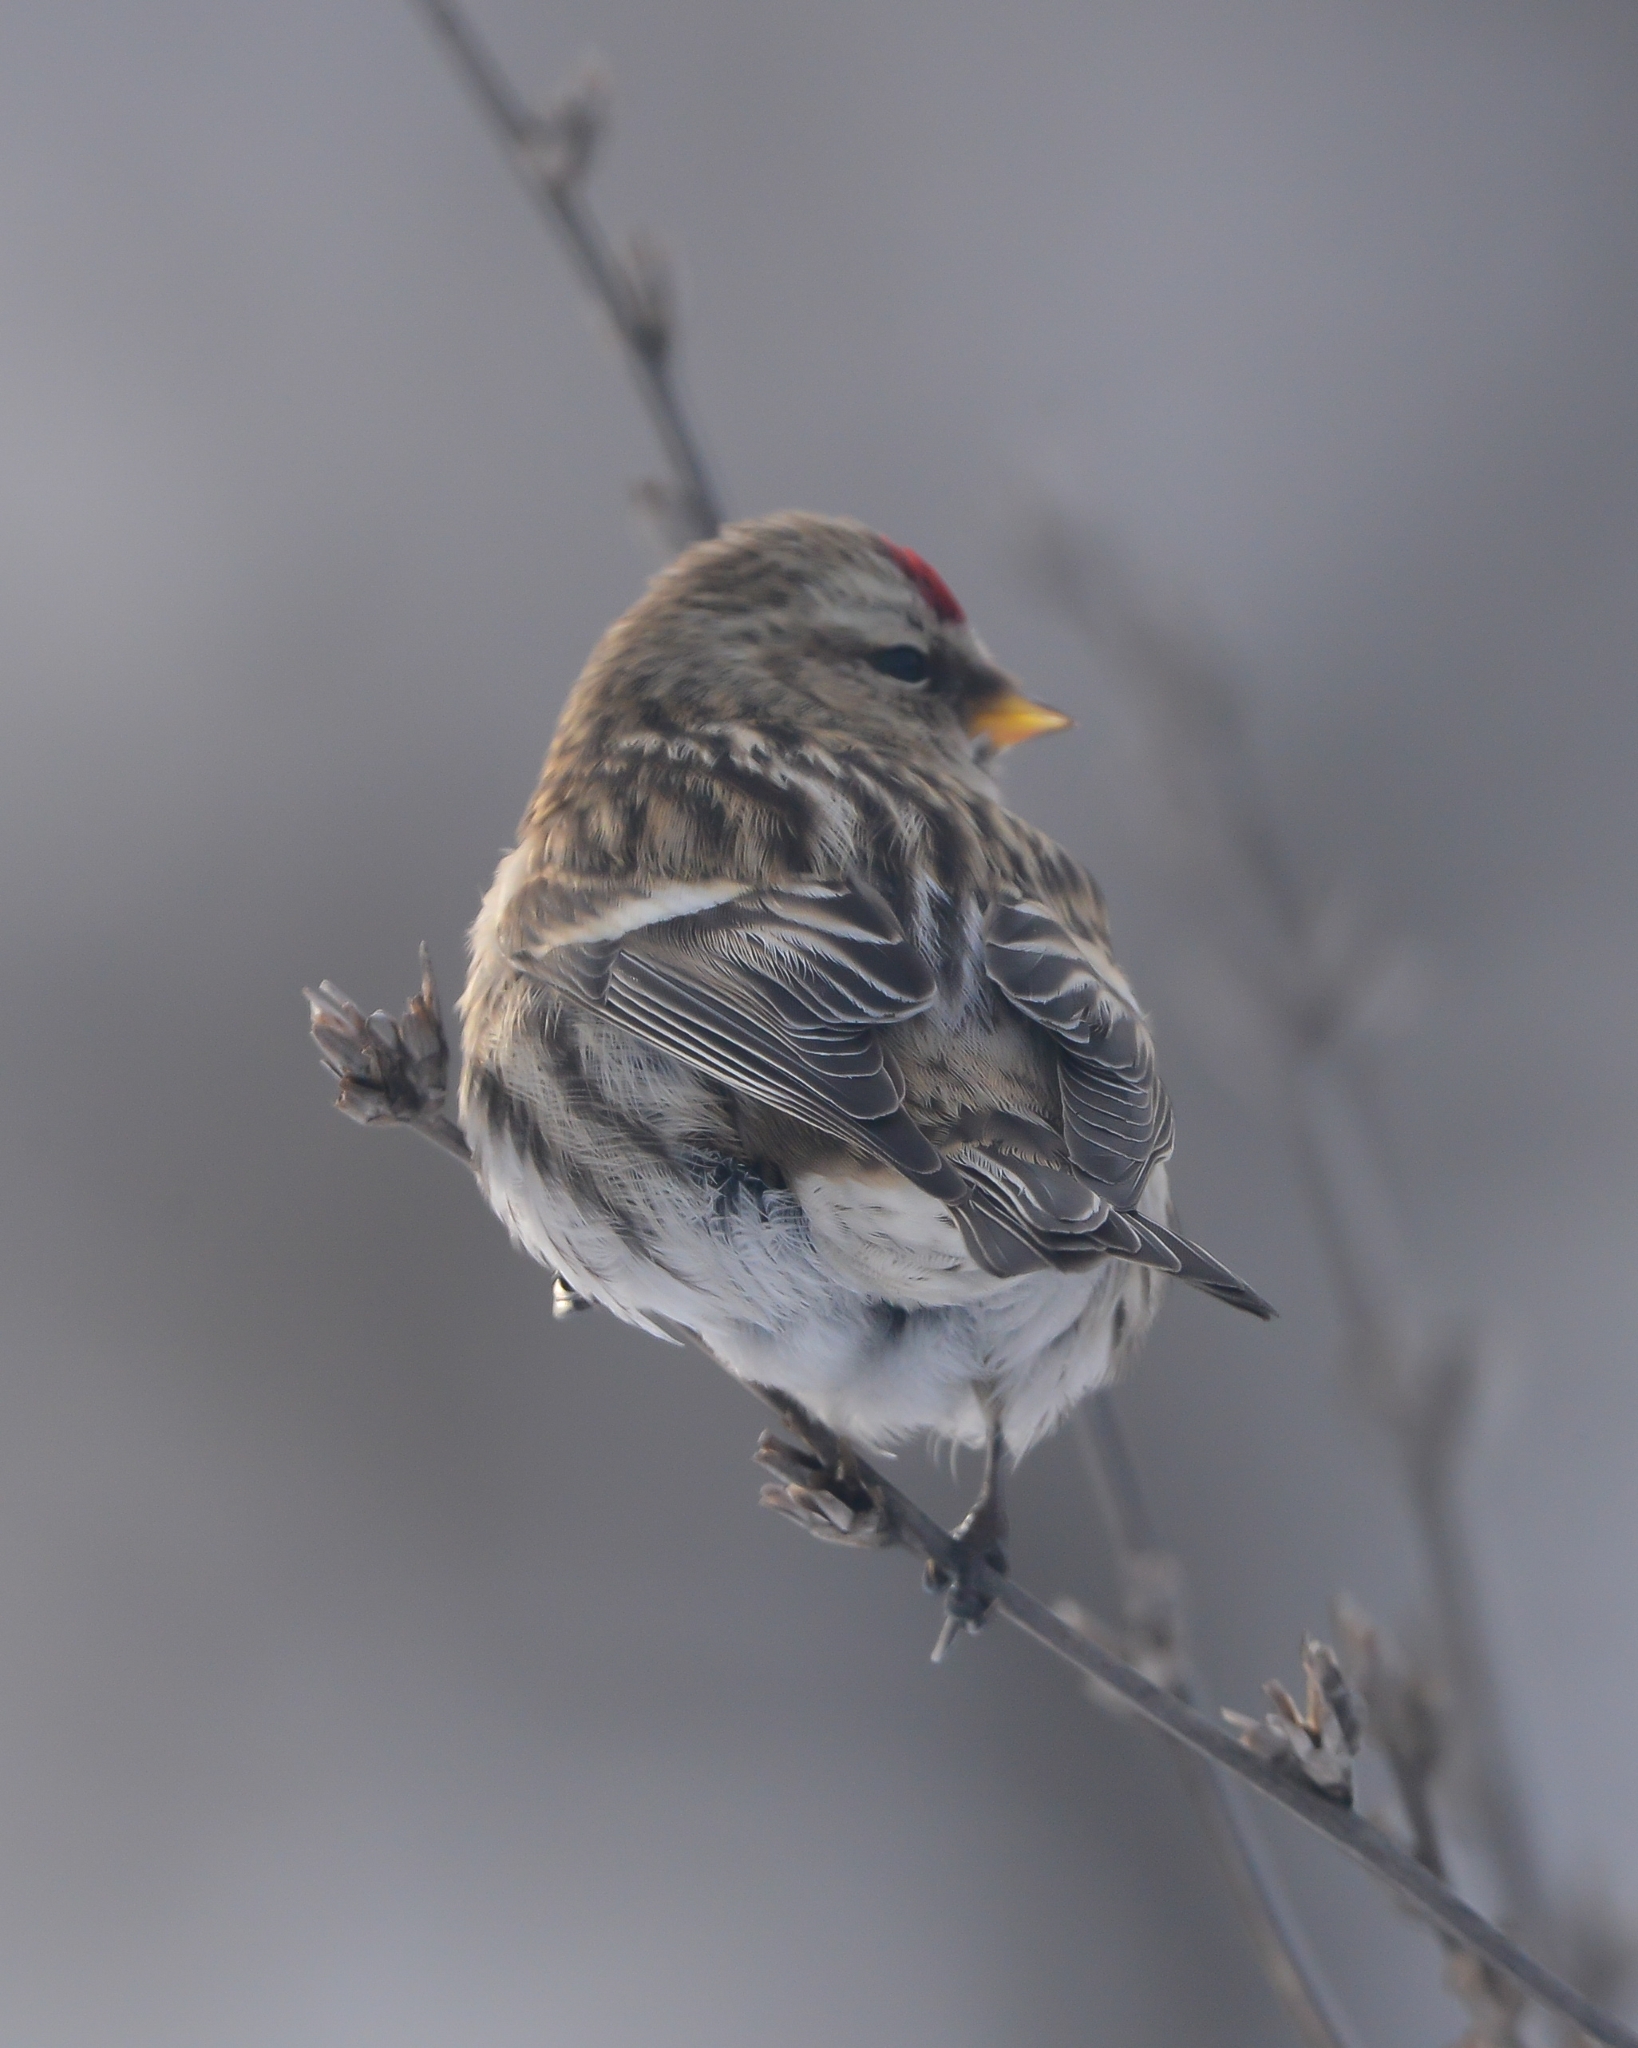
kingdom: Animalia
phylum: Chordata
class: Aves
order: Passeriformes
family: Fringillidae
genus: Acanthis
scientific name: Acanthis flammea
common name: Common redpoll
